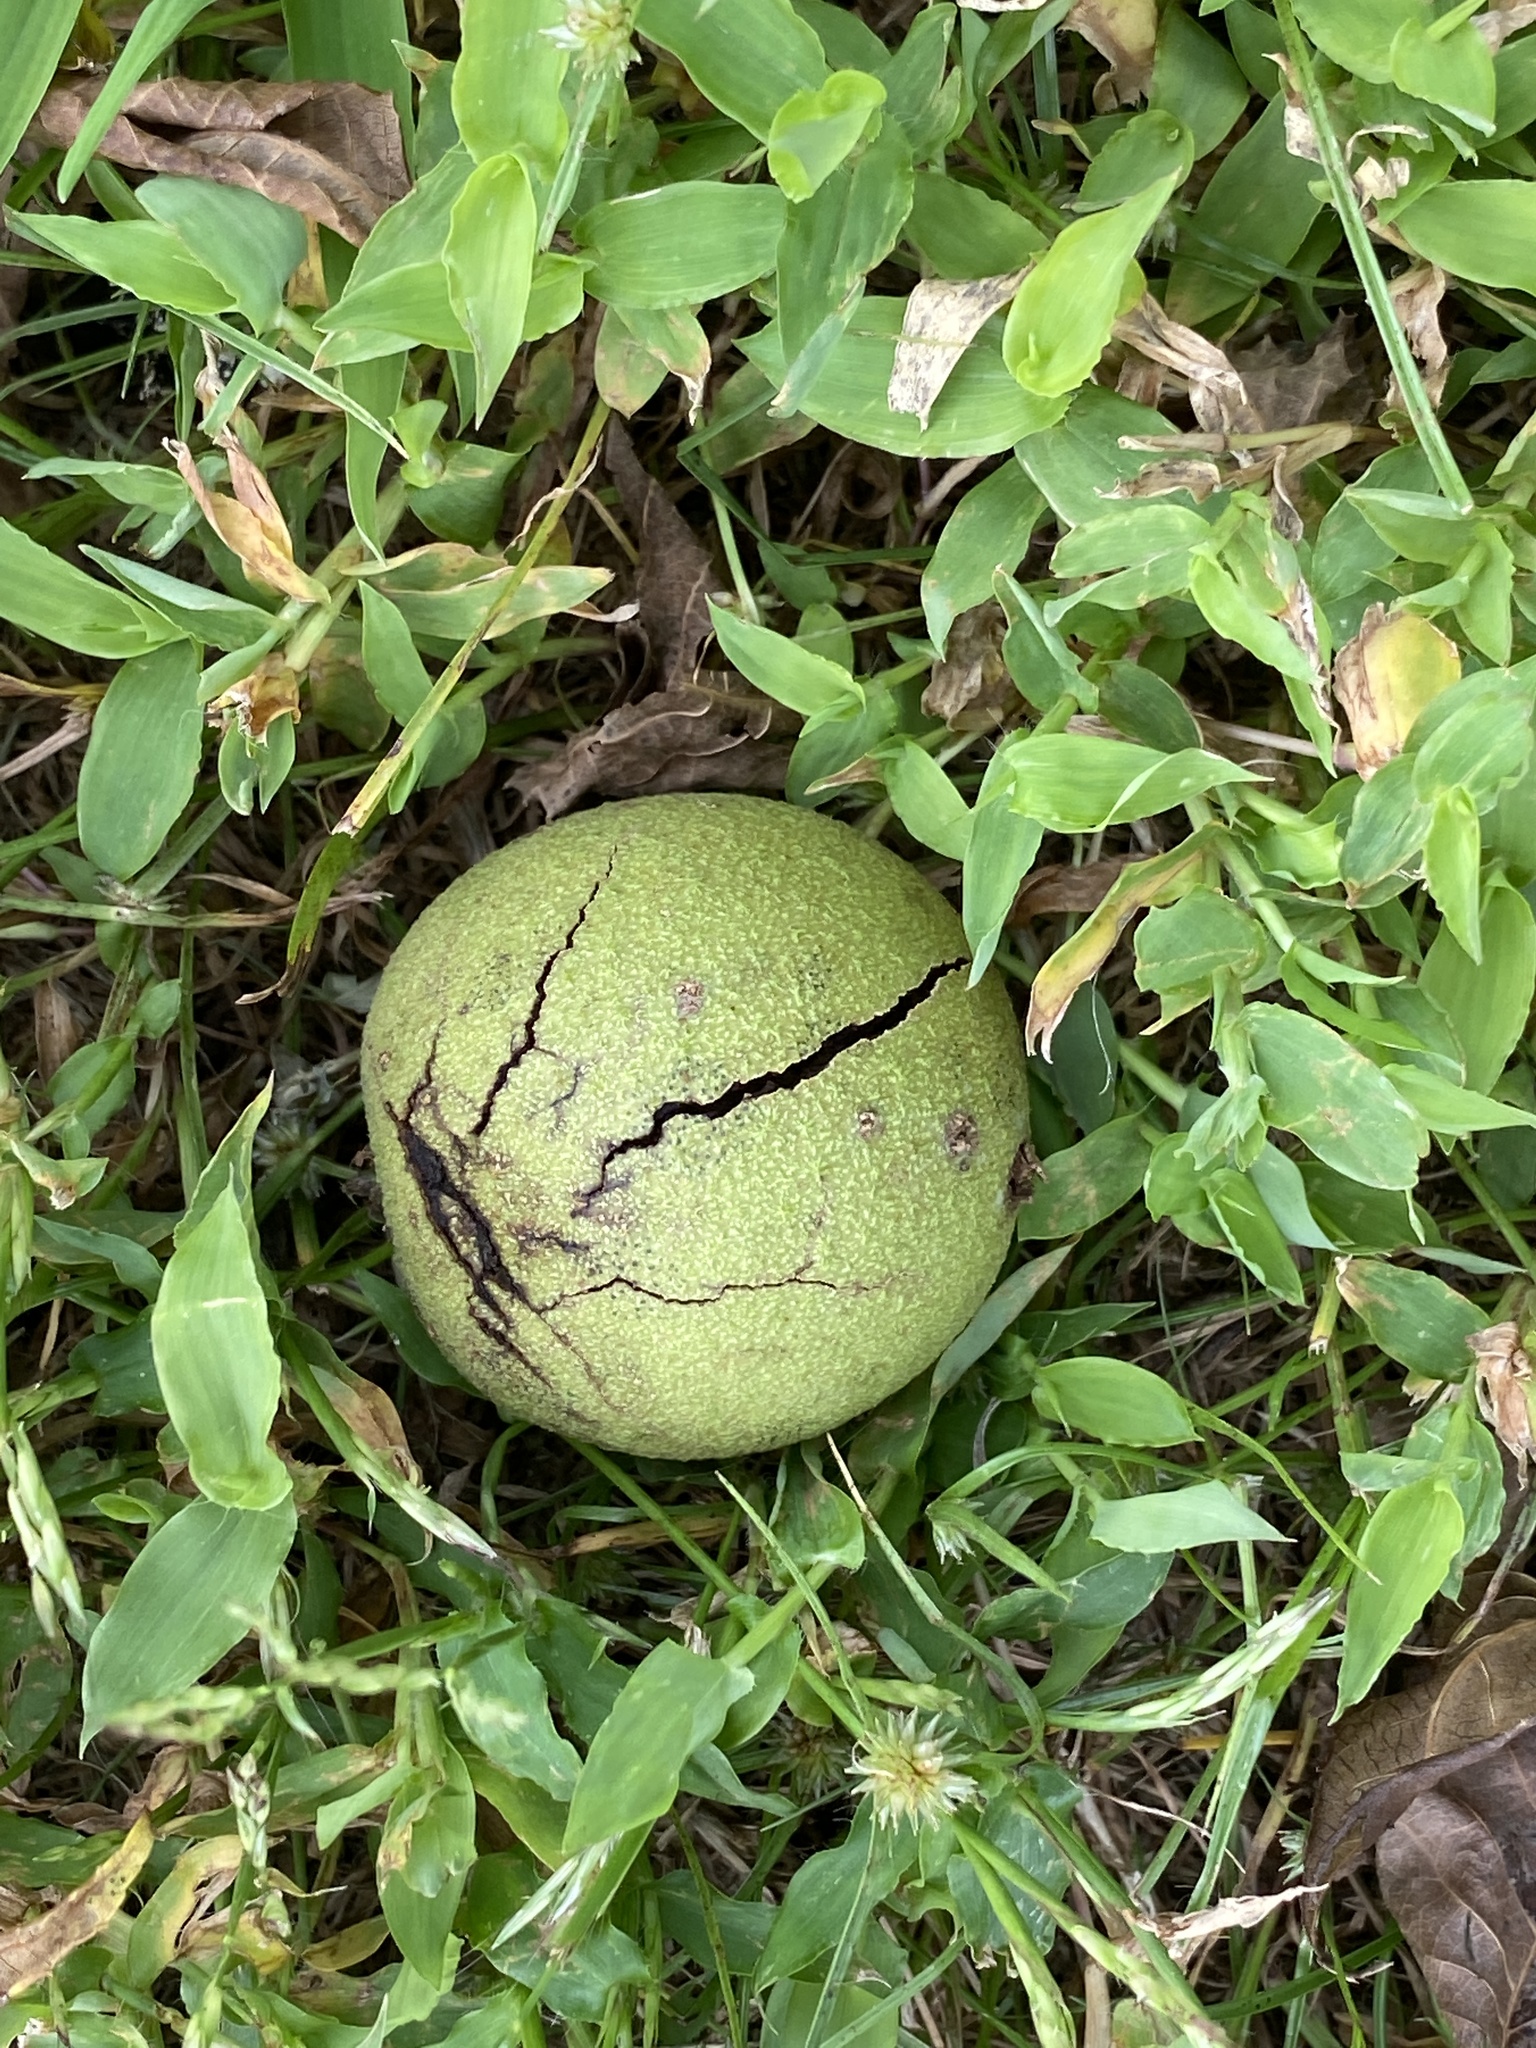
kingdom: Plantae
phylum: Tracheophyta
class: Magnoliopsida
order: Fagales
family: Juglandaceae
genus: Juglans
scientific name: Juglans nigra
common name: Black walnut
